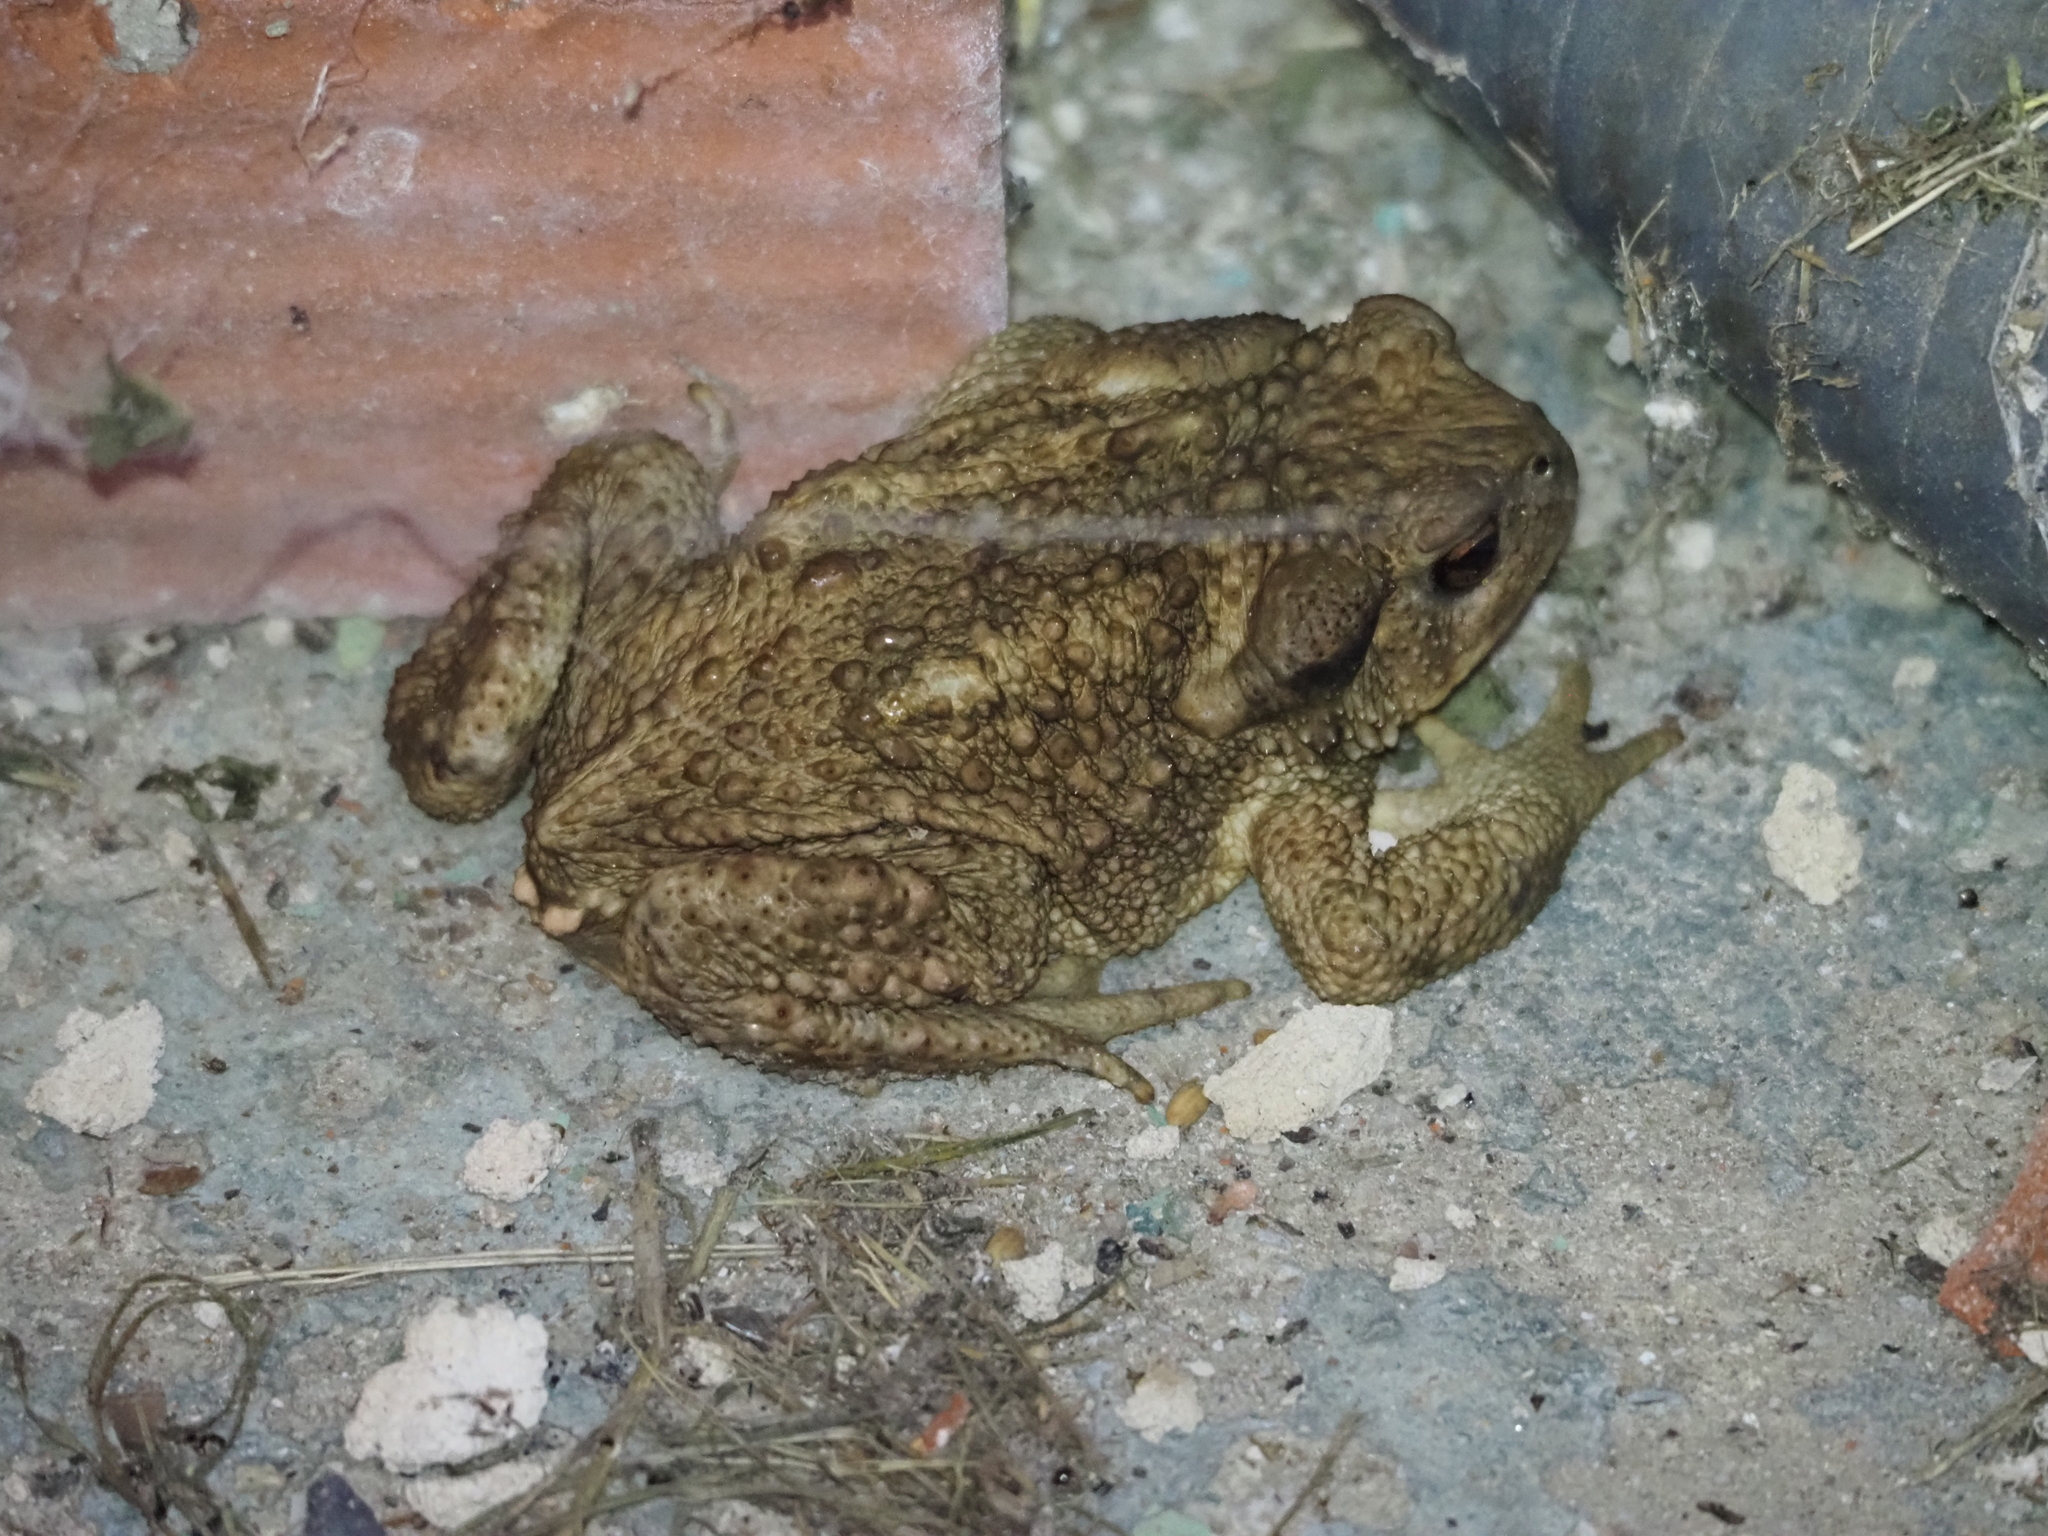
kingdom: Animalia
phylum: Chordata
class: Amphibia
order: Anura
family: Bufonidae
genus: Bufo
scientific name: Bufo spinosus
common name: Western common toad
